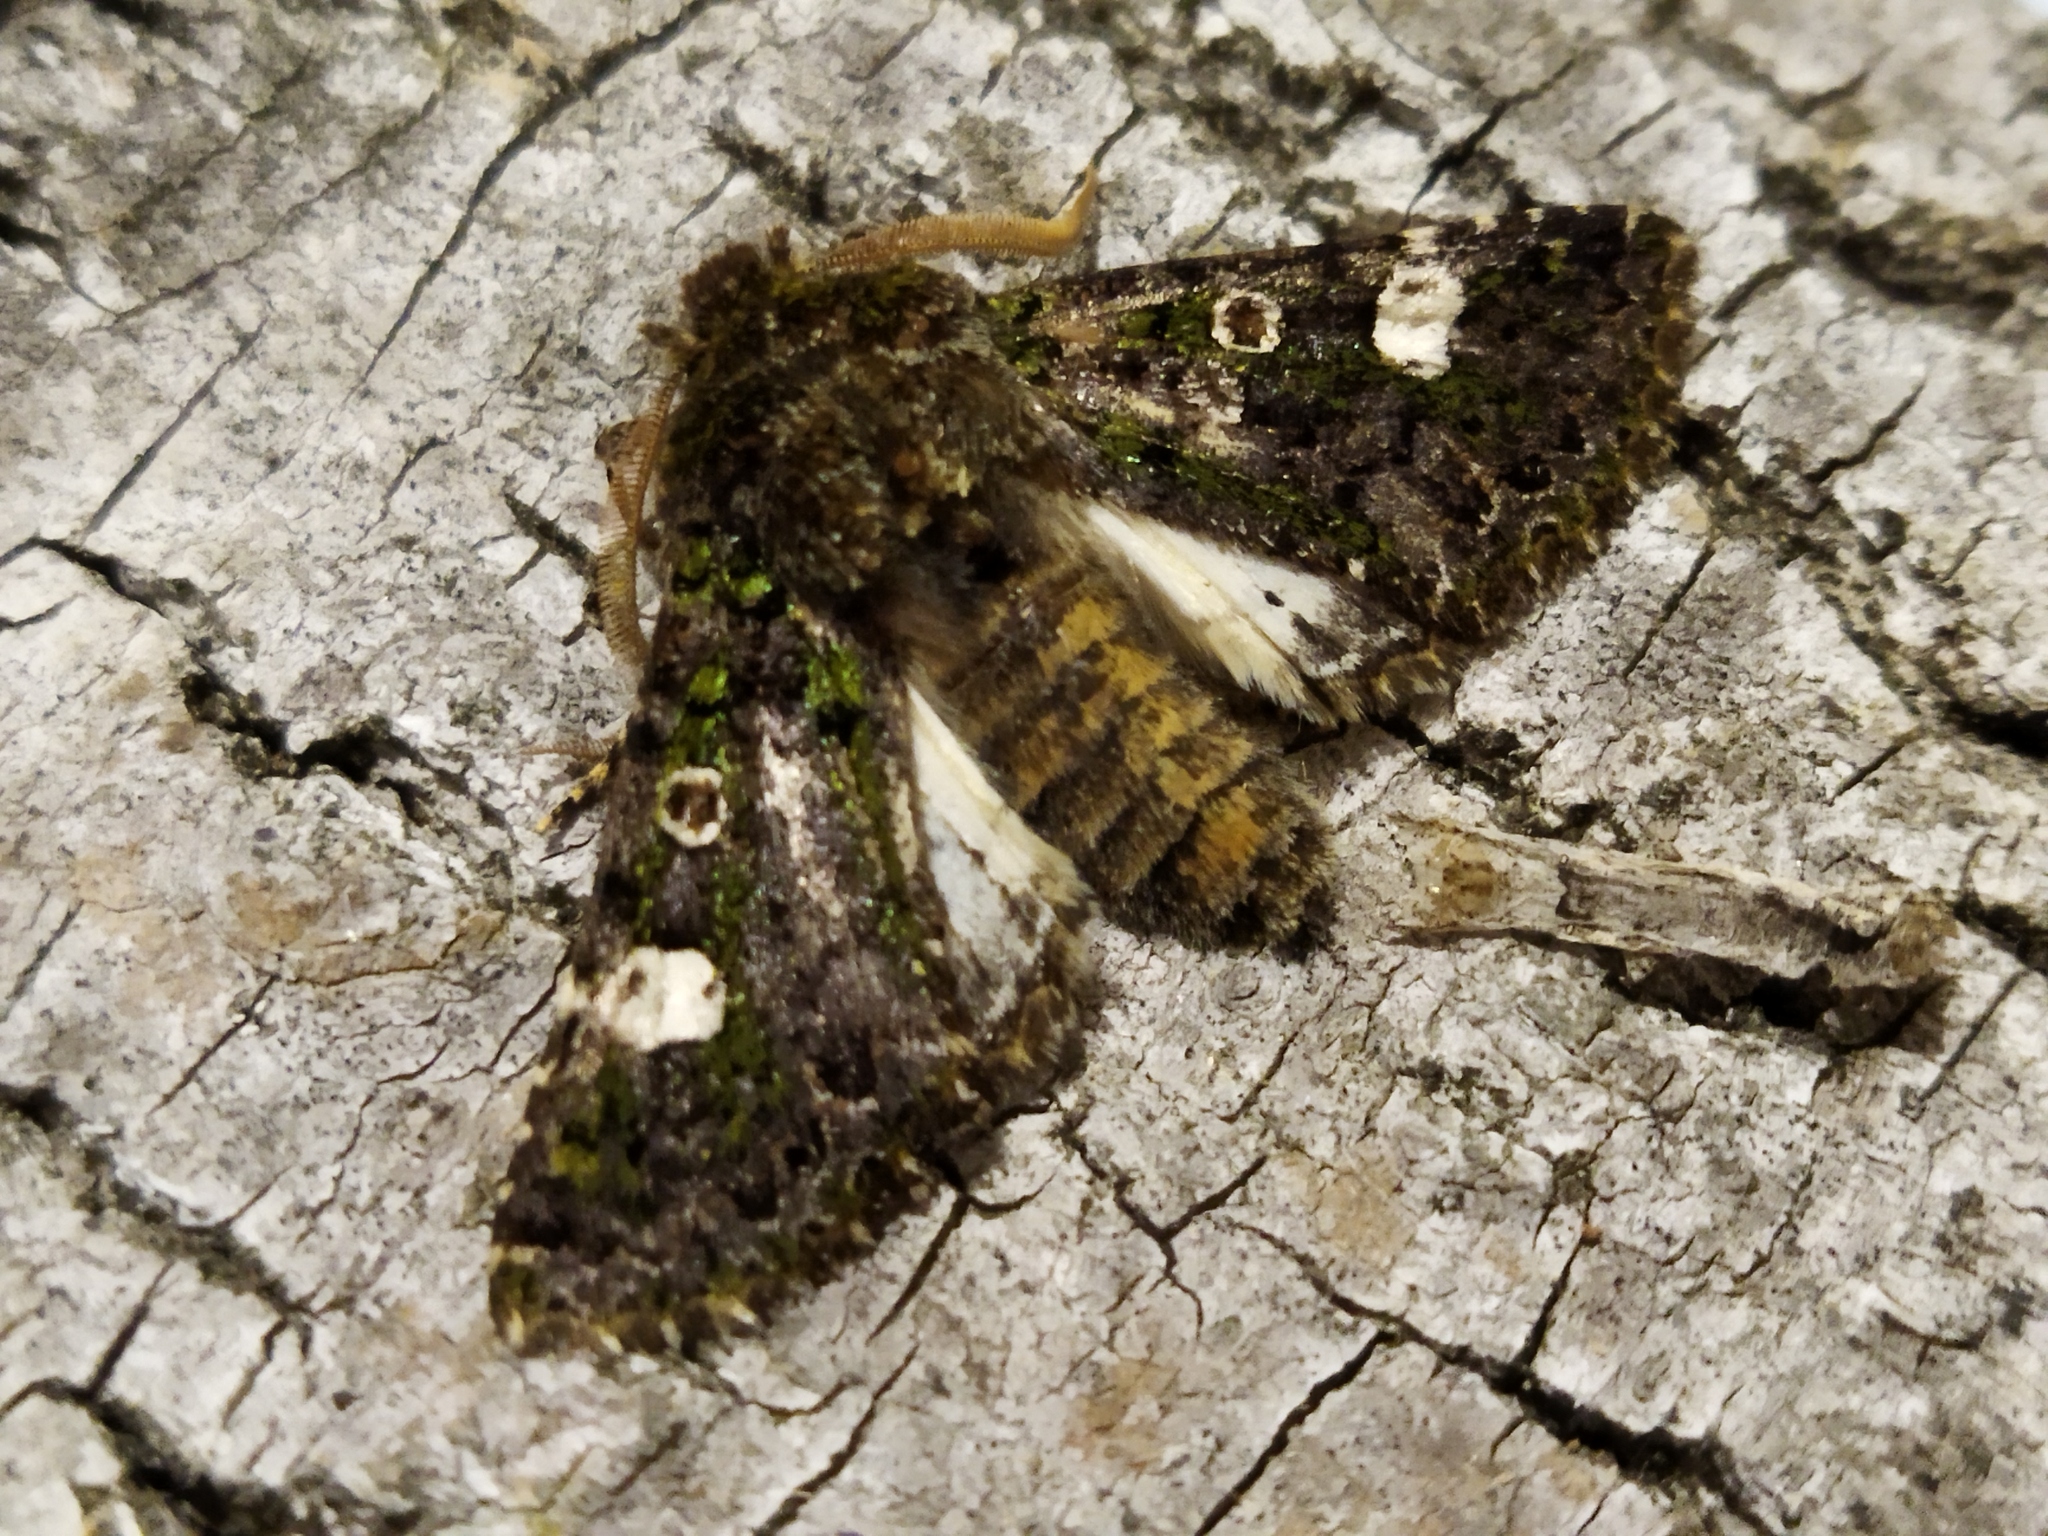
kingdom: Animalia
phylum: Arthropoda
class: Insecta
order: Lepidoptera
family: Noctuidae
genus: Valeria
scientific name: Valeria oleagina
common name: Green-brindled dot
